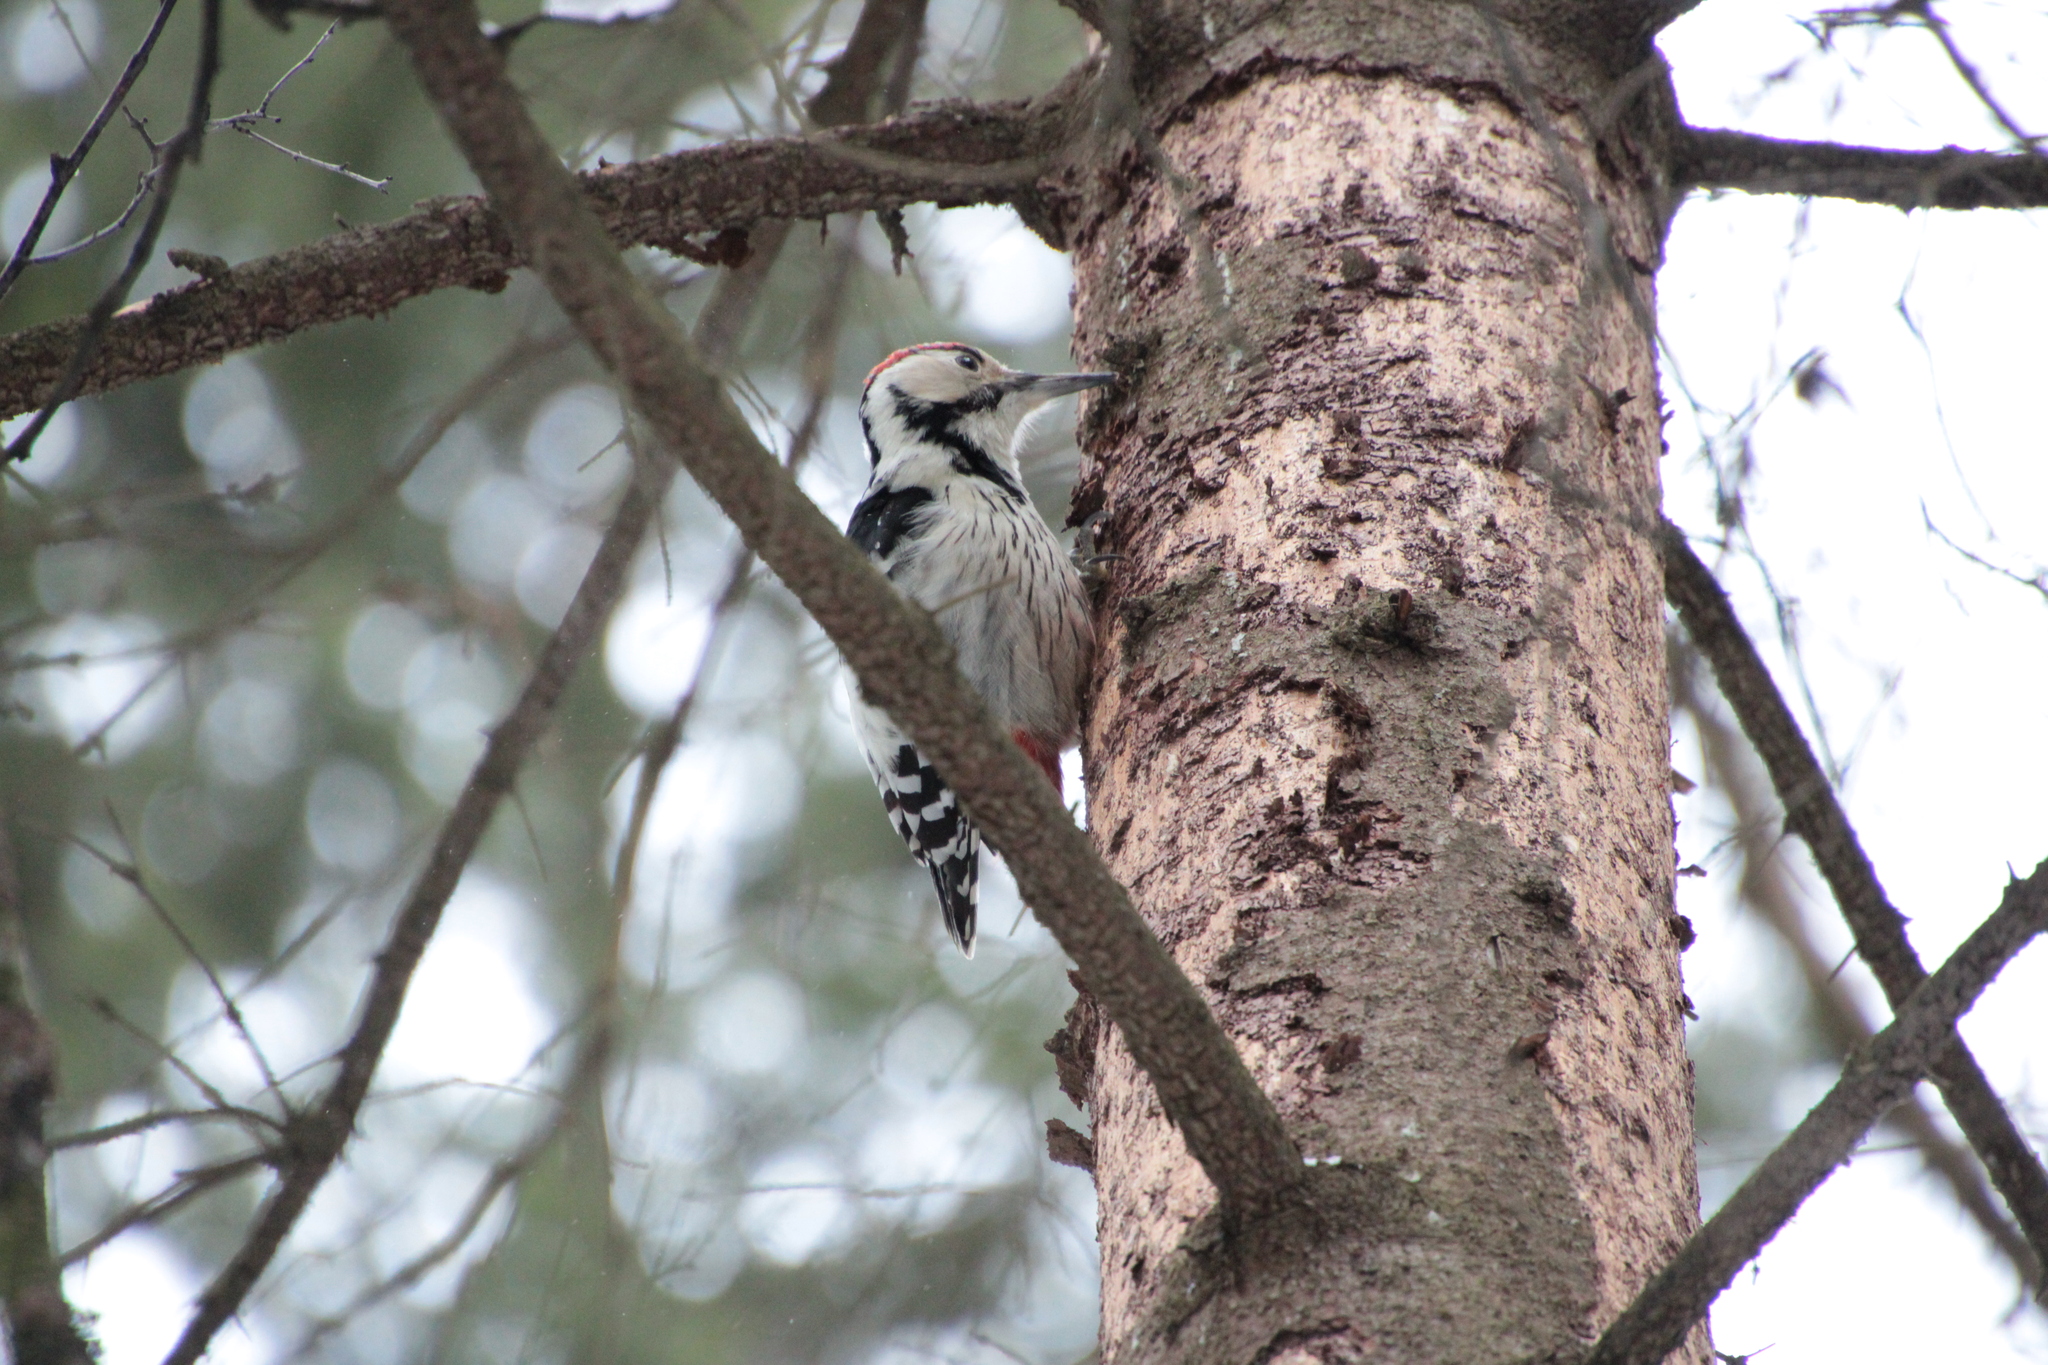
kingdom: Animalia
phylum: Chordata
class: Aves
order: Piciformes
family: Picidae
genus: Dendrocopos
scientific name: Dendrocopos leucotos
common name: White-backed woodpecker
